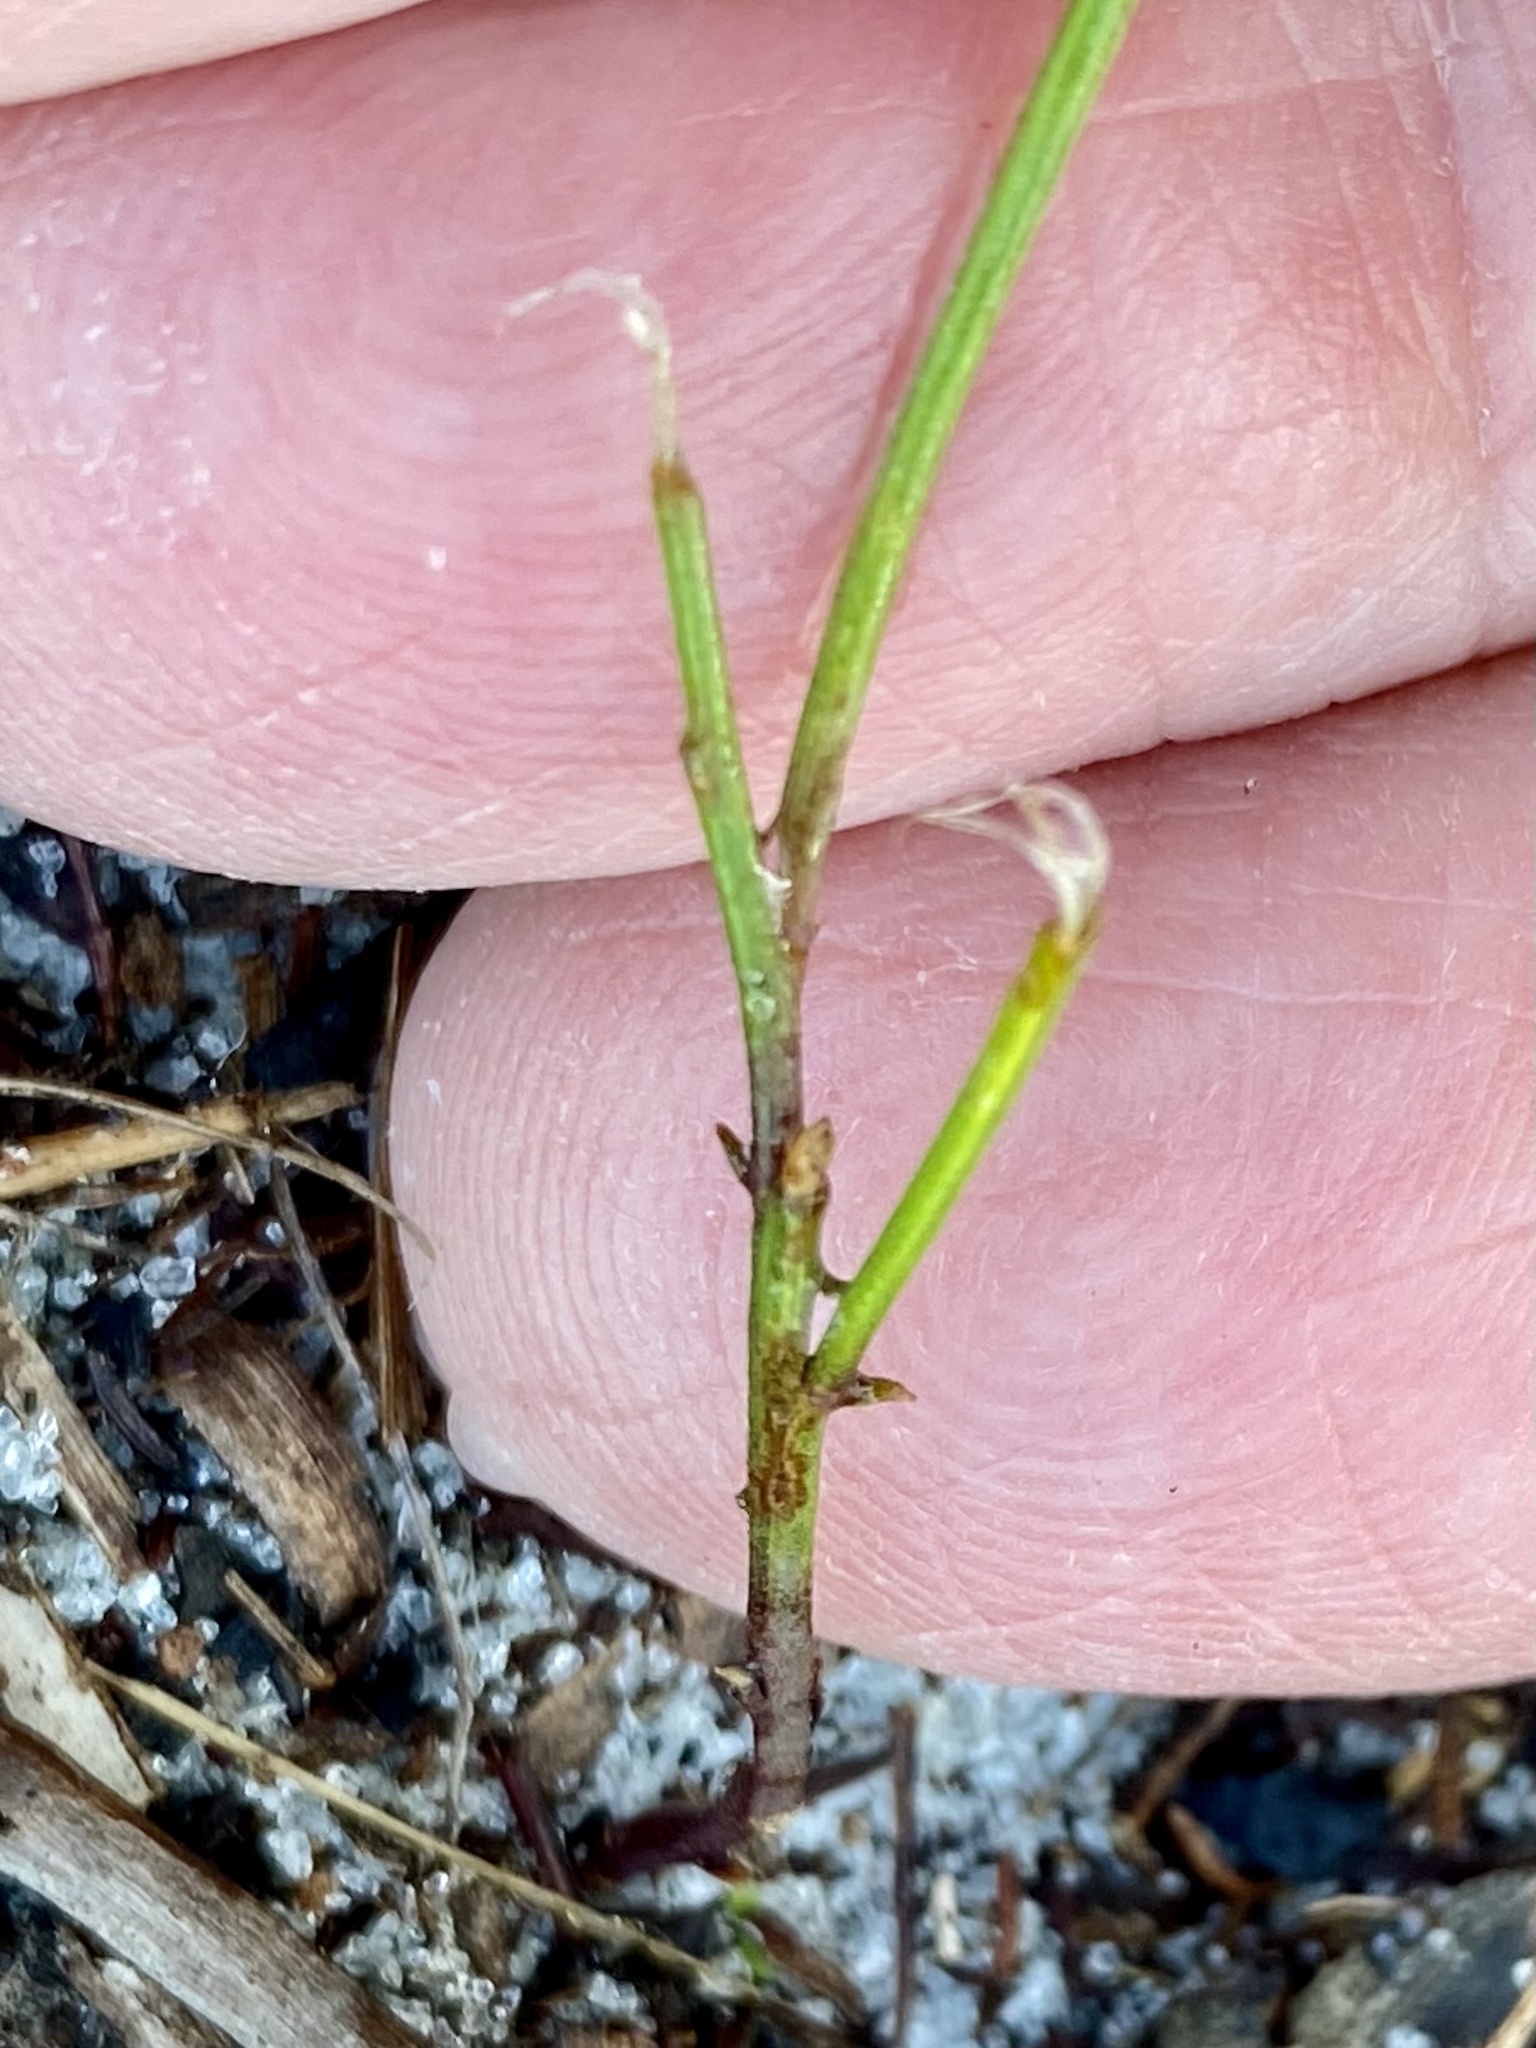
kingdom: Plantae
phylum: Tracheophyta
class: Magnoliopsida
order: Fabales
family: Polygalaceae
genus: Polygala
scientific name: Polygala setacea
